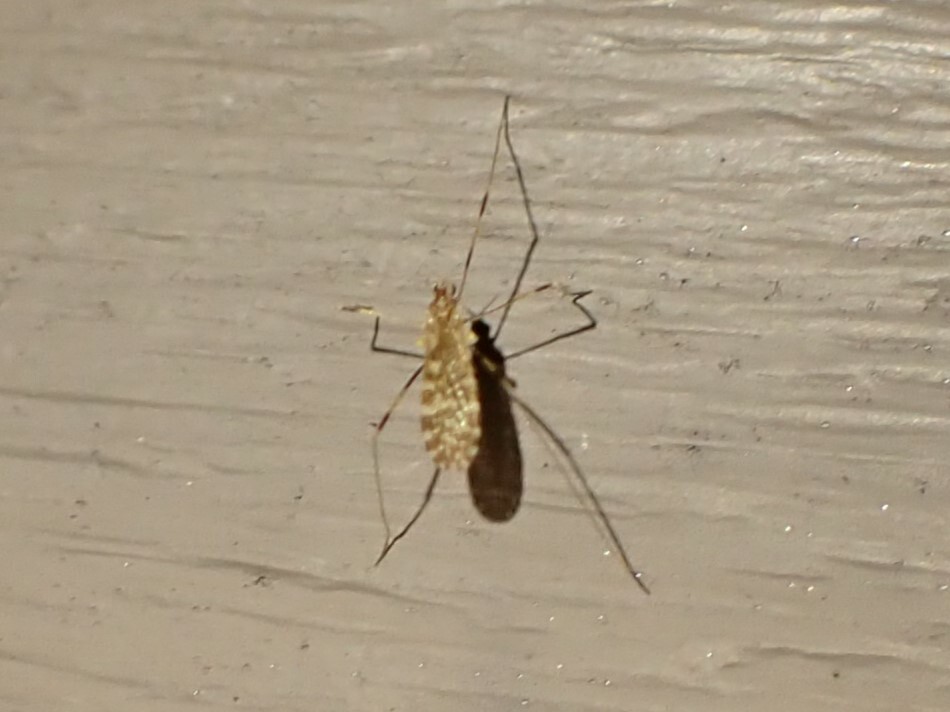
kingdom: Animalia
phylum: Arthropoda
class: Insecta
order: Diptera
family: Limoniidae
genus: Erioptera
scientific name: Erioptera caliptera
